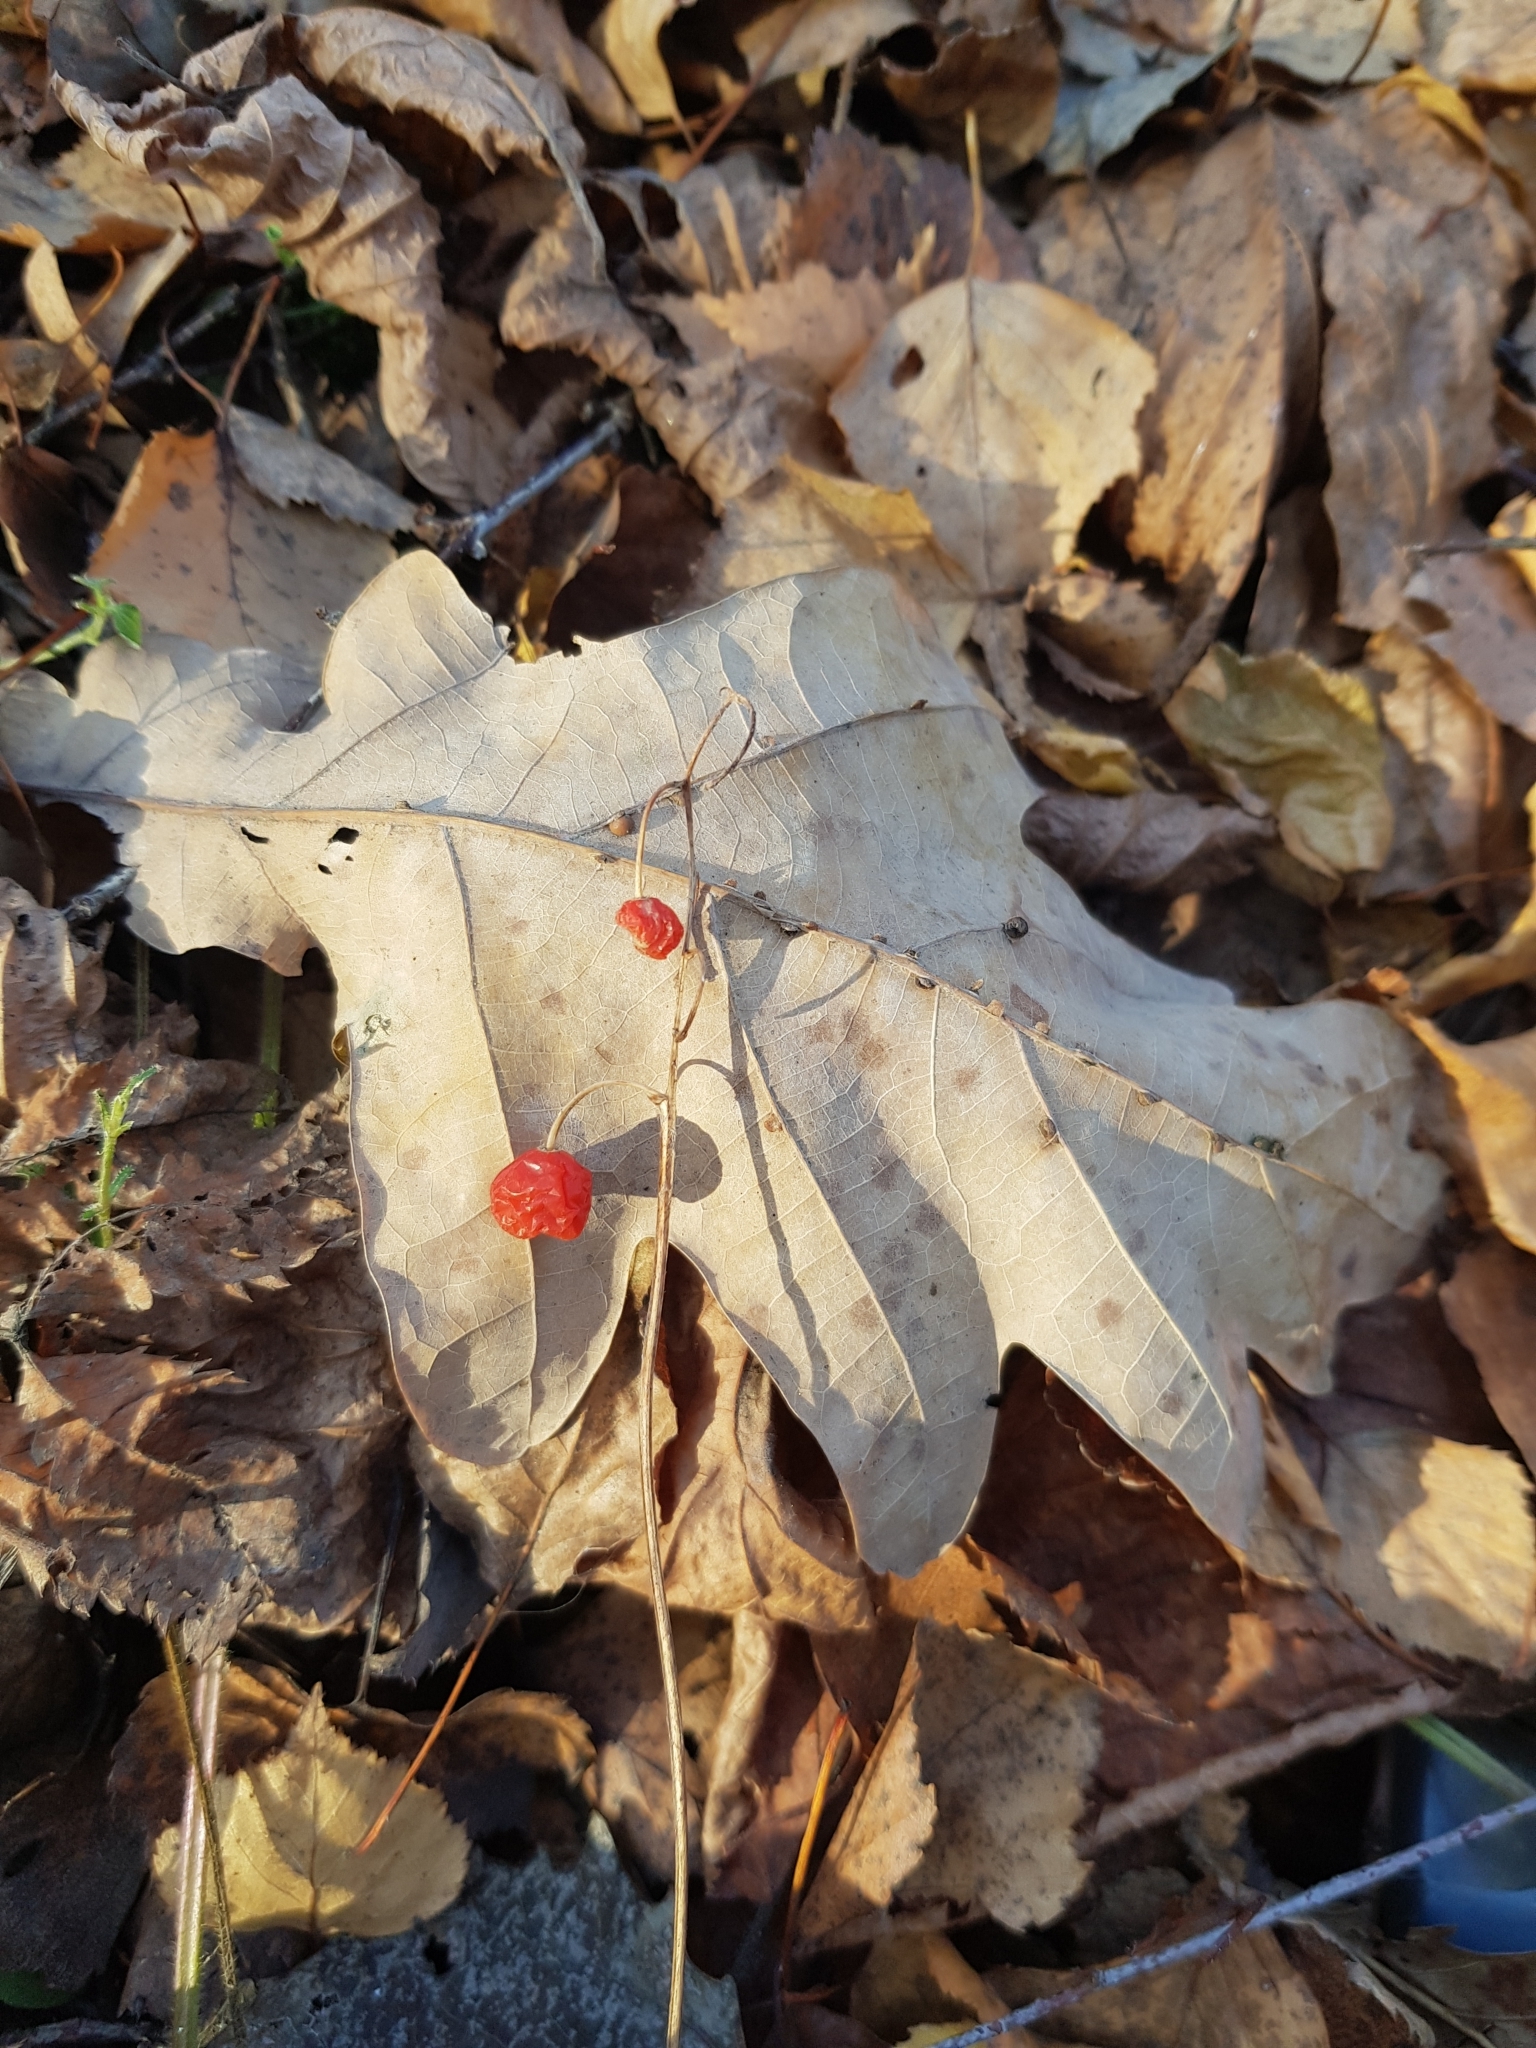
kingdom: Plantae
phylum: Tracheophyta
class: Liliopsida
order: Asparagales
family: Asparagaceae
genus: Convallaria
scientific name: Convallaria majalis
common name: Lily-of-the-valley
